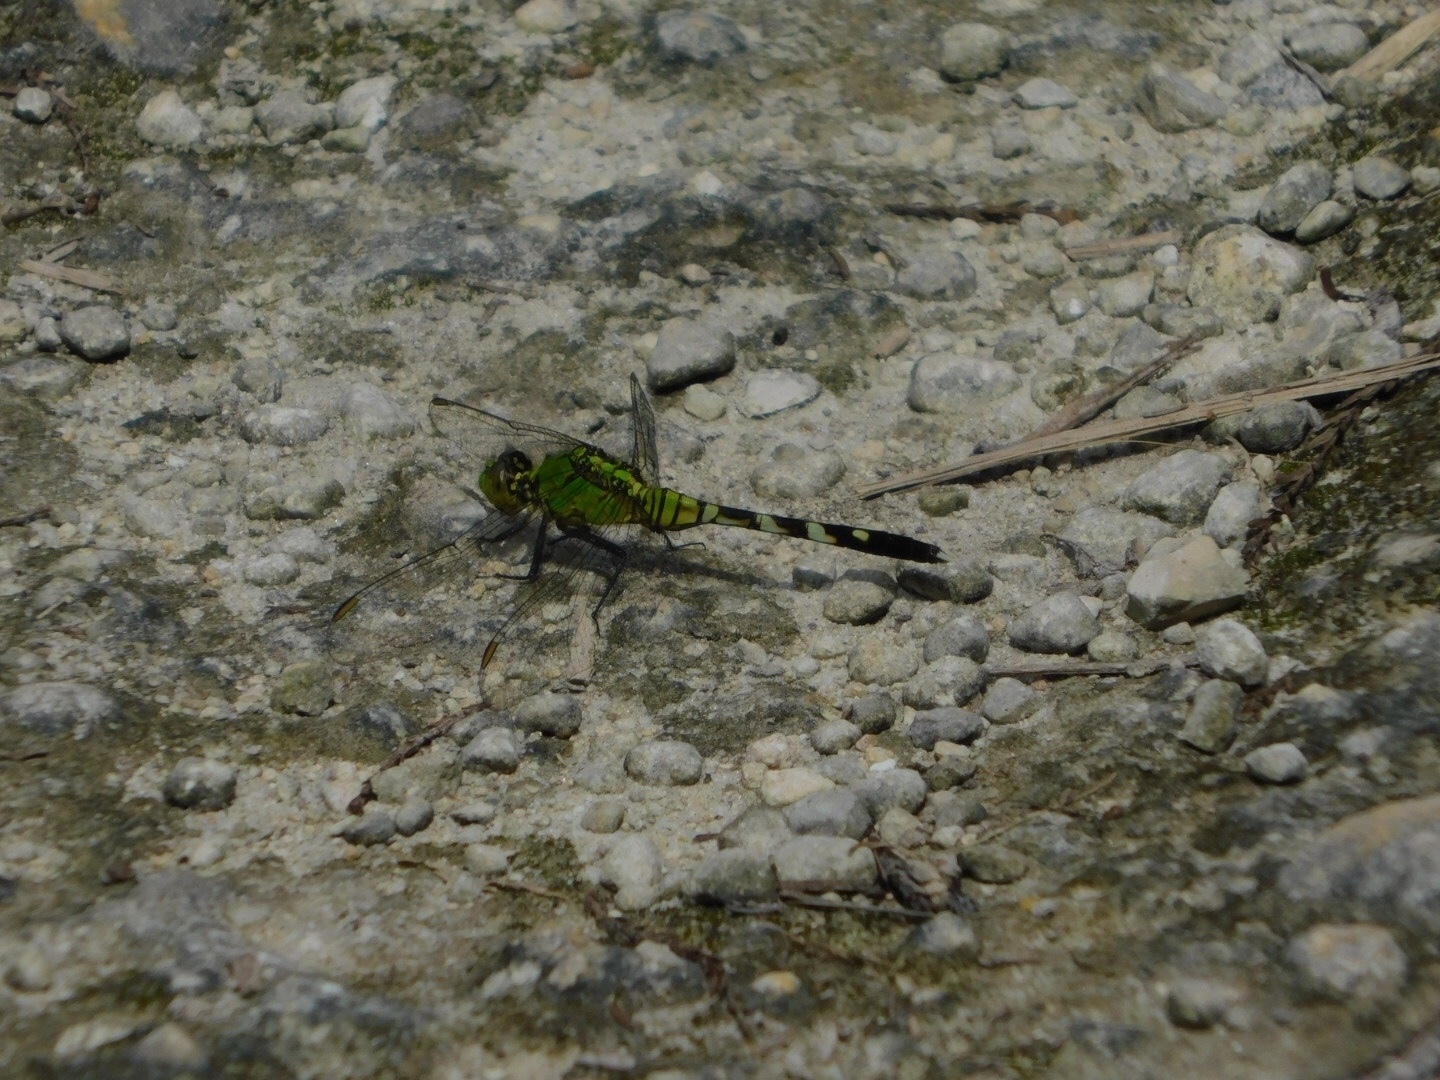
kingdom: Animalia
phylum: Arthropoda
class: Insecta
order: Odonata
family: Libellulidae
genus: Erythemis
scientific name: Erythemis simplicicollis
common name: Eastern pondhawk
